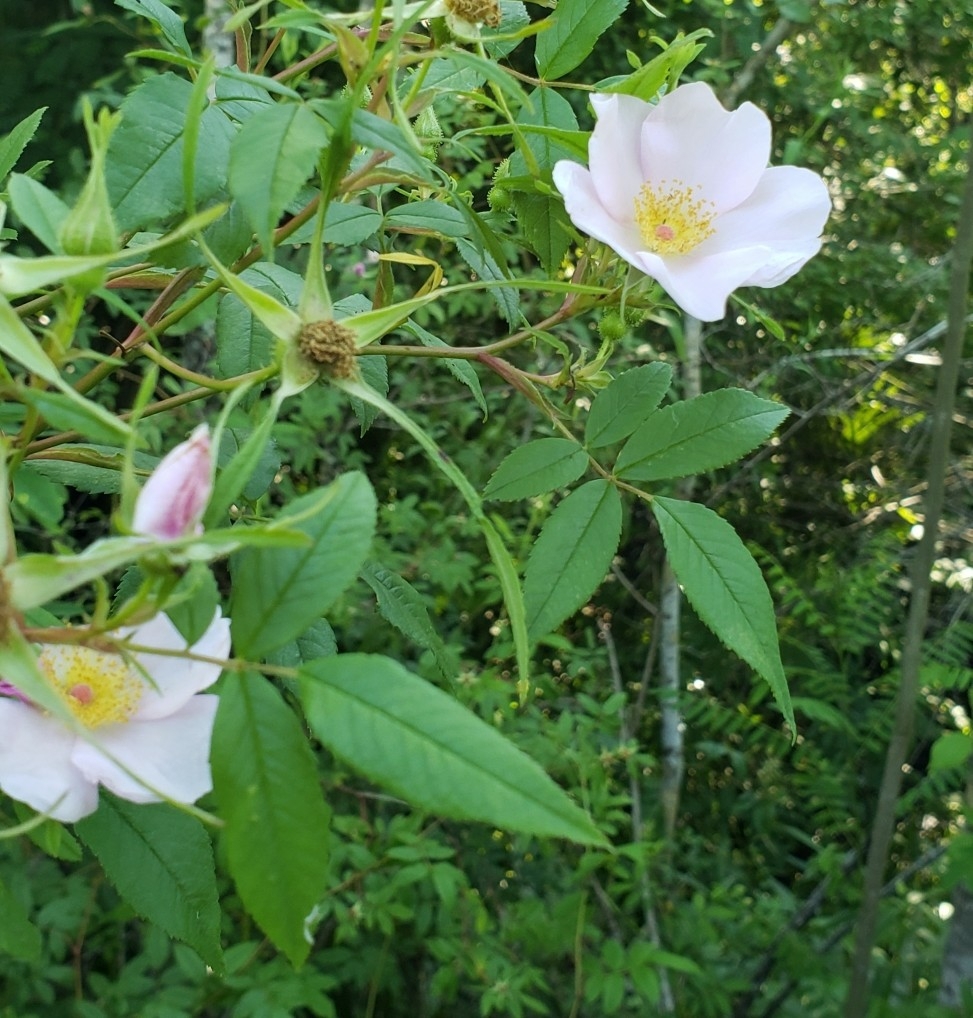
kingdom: Plantae
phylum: Tracheophyta
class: Magnoliopsida
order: Rosales
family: Rosaceae
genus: Rosa
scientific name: Rosa palustris
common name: Swamp rose
